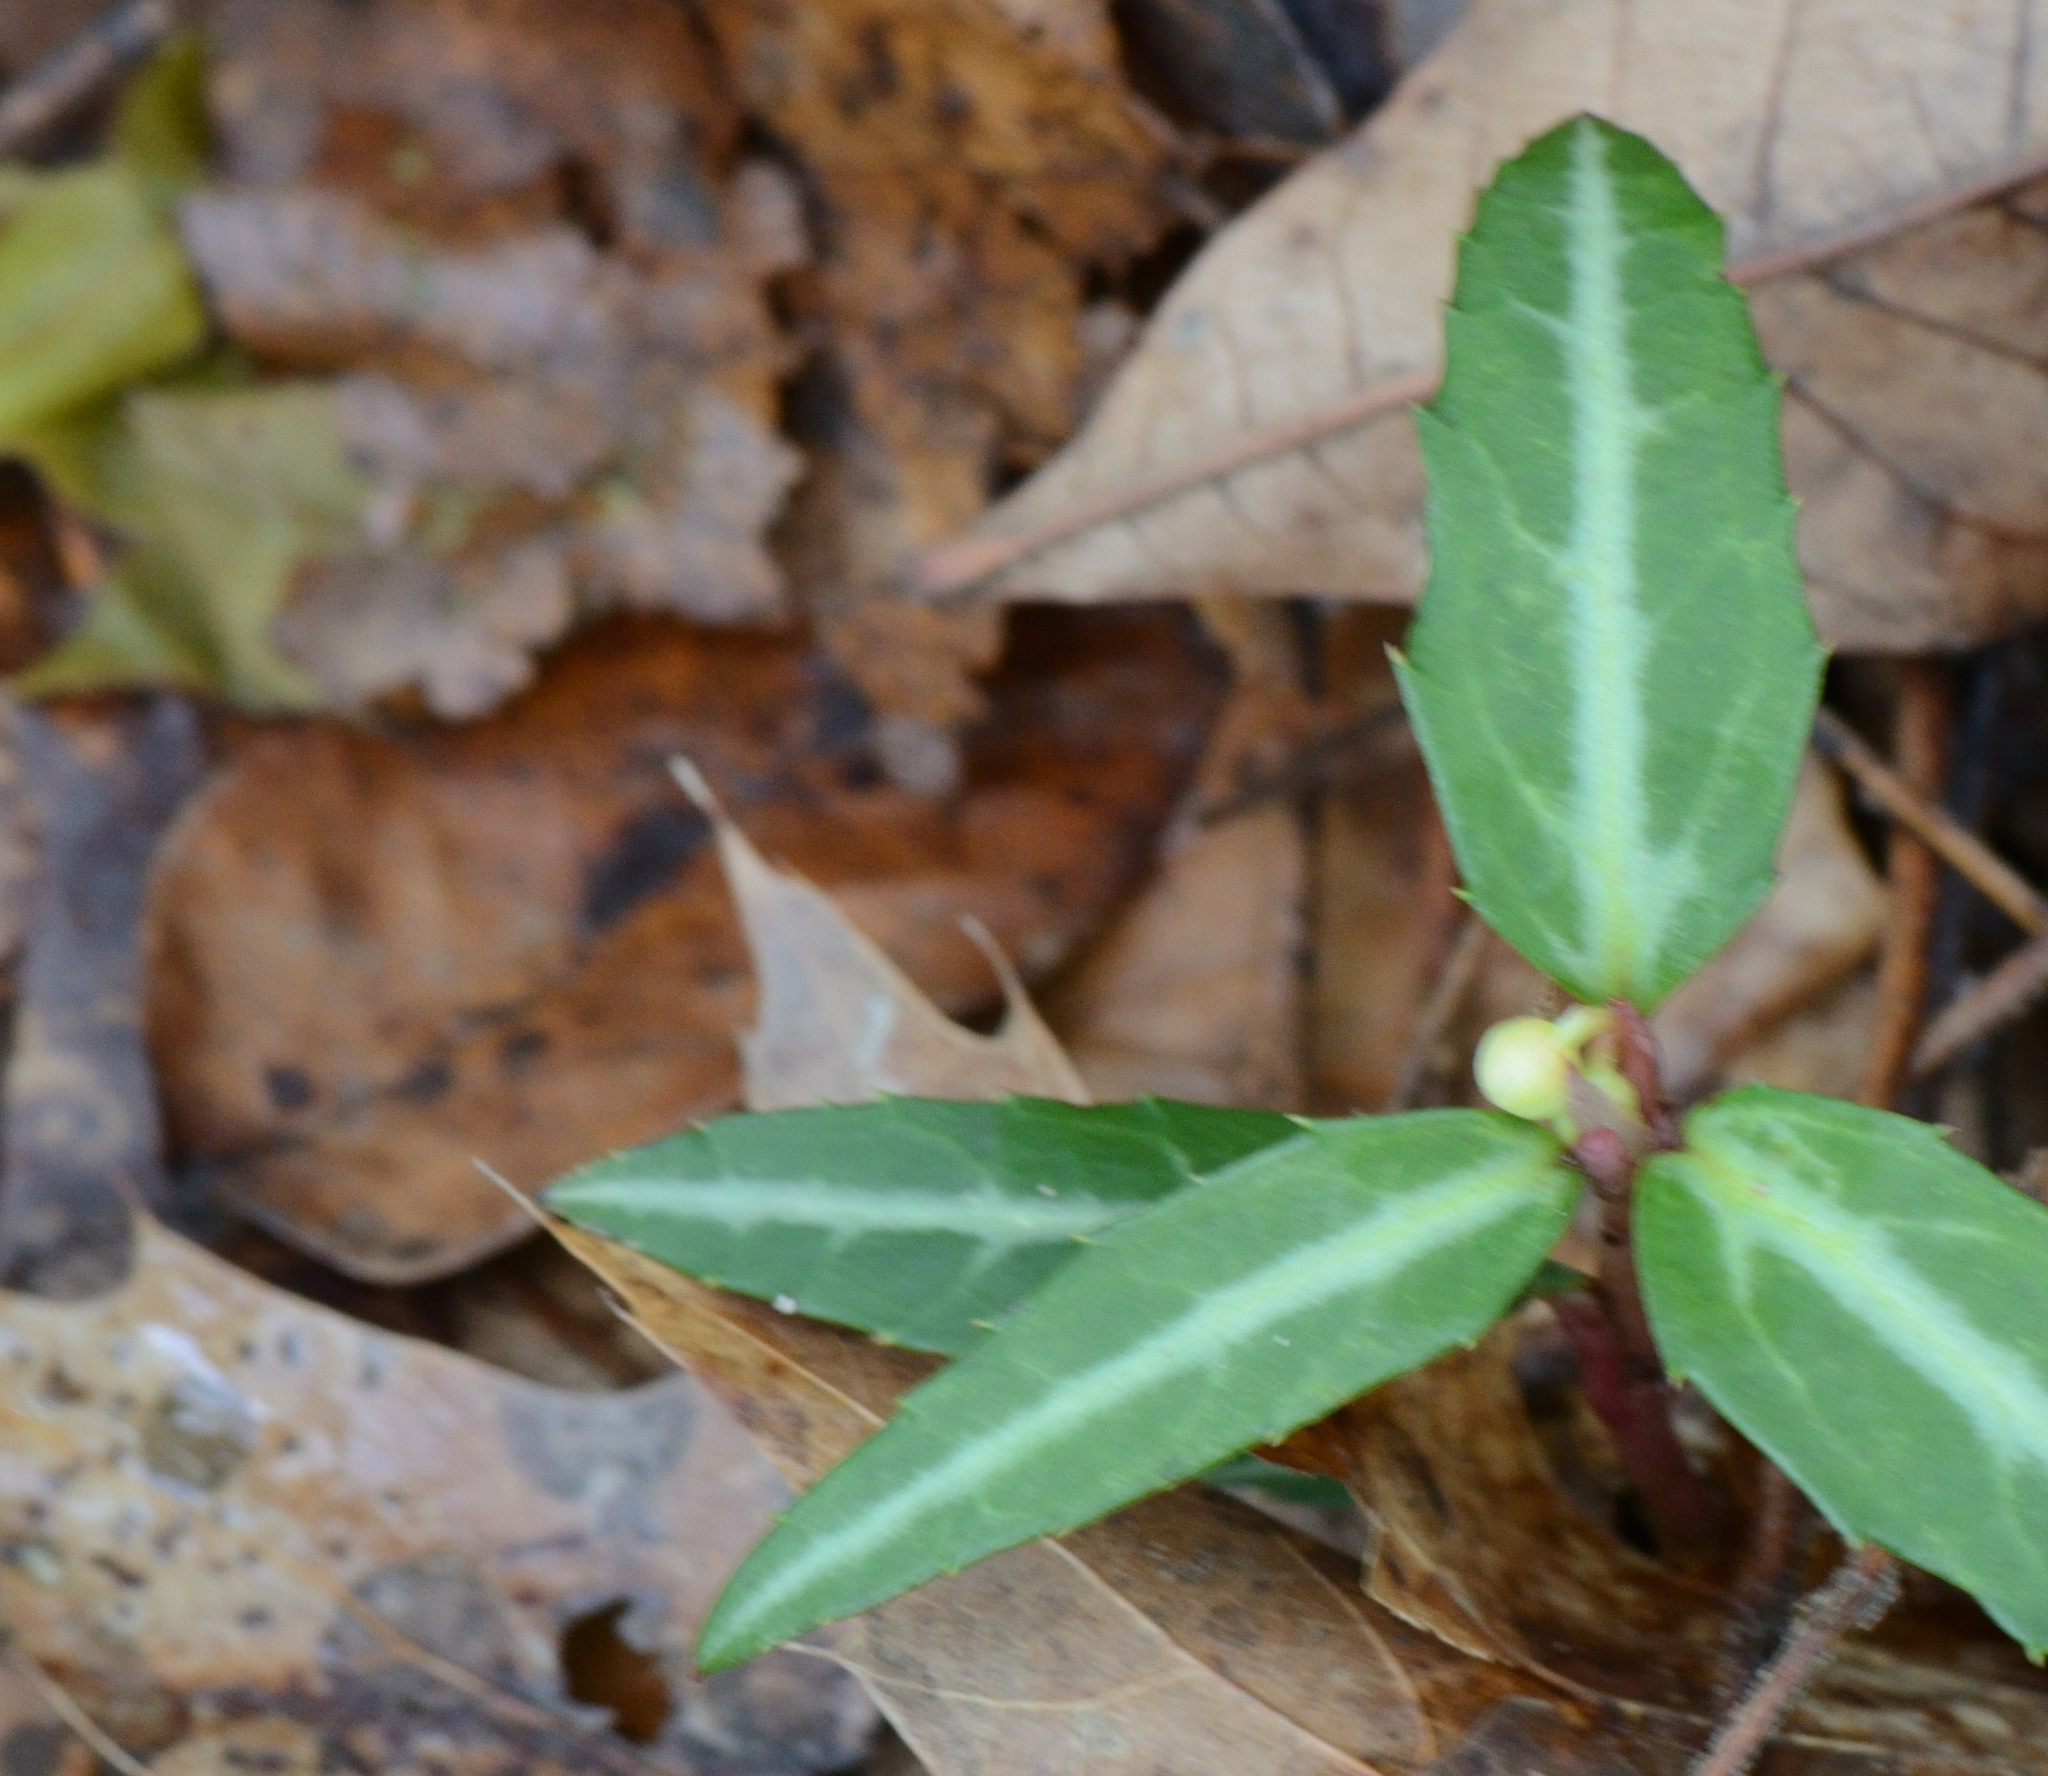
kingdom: Plantae
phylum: Tracheophyta
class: Magnoliopsida
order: Ericales
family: Ericaceae
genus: Chimaphila
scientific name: Chimaphila maculata
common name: Spotted pipsissewa
